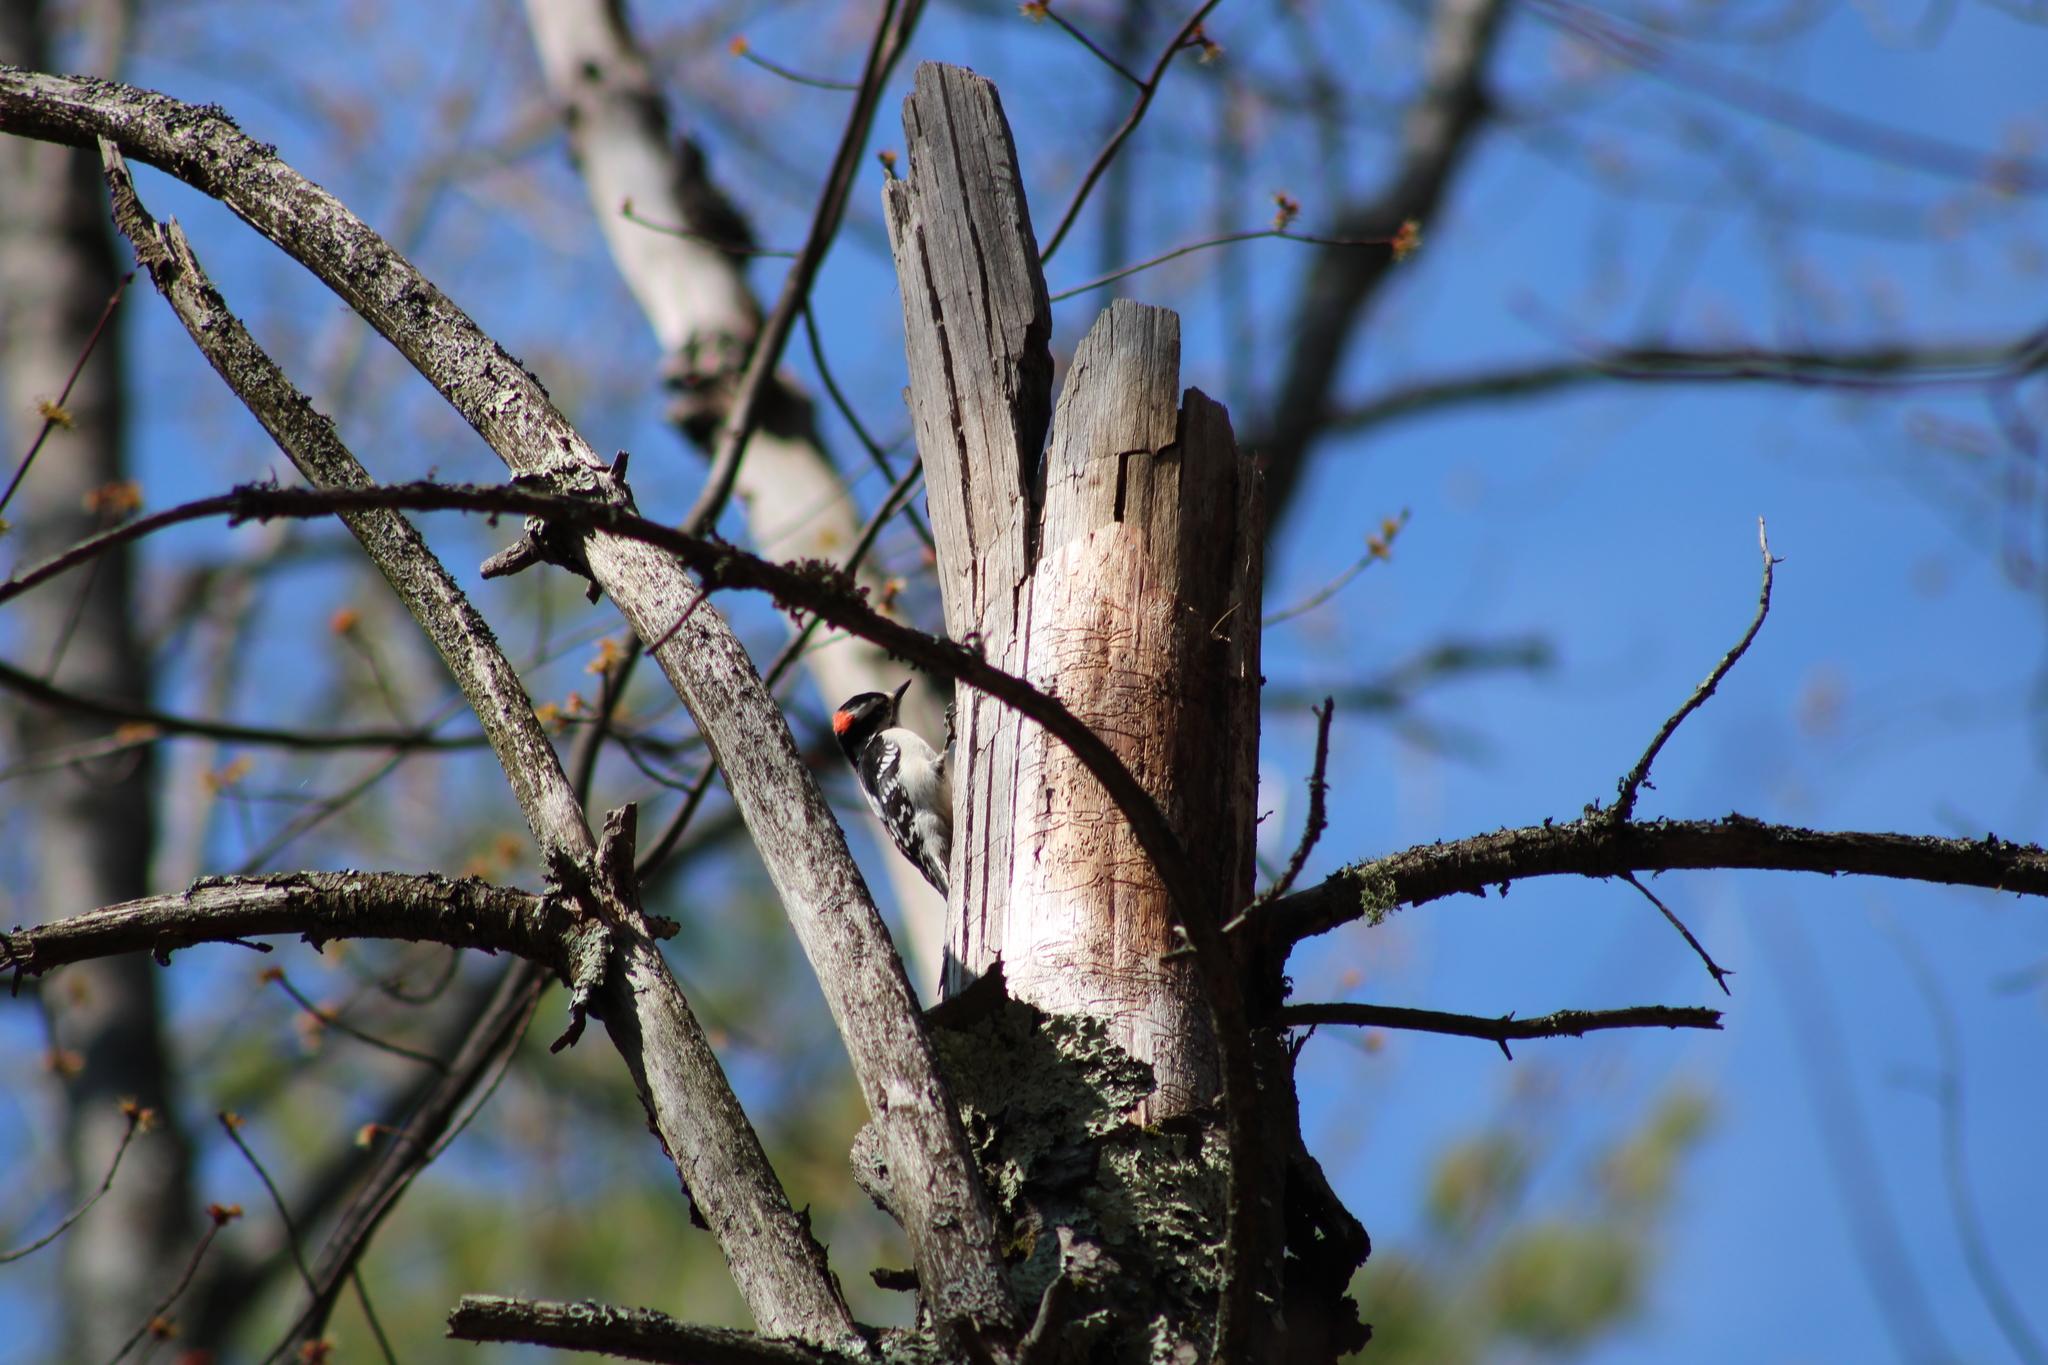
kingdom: Animalia
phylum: Chordata
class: Aves
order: Piciformes
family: Picidae
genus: Dryobates
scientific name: Dryobates pubescens
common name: Downy woodpecker
